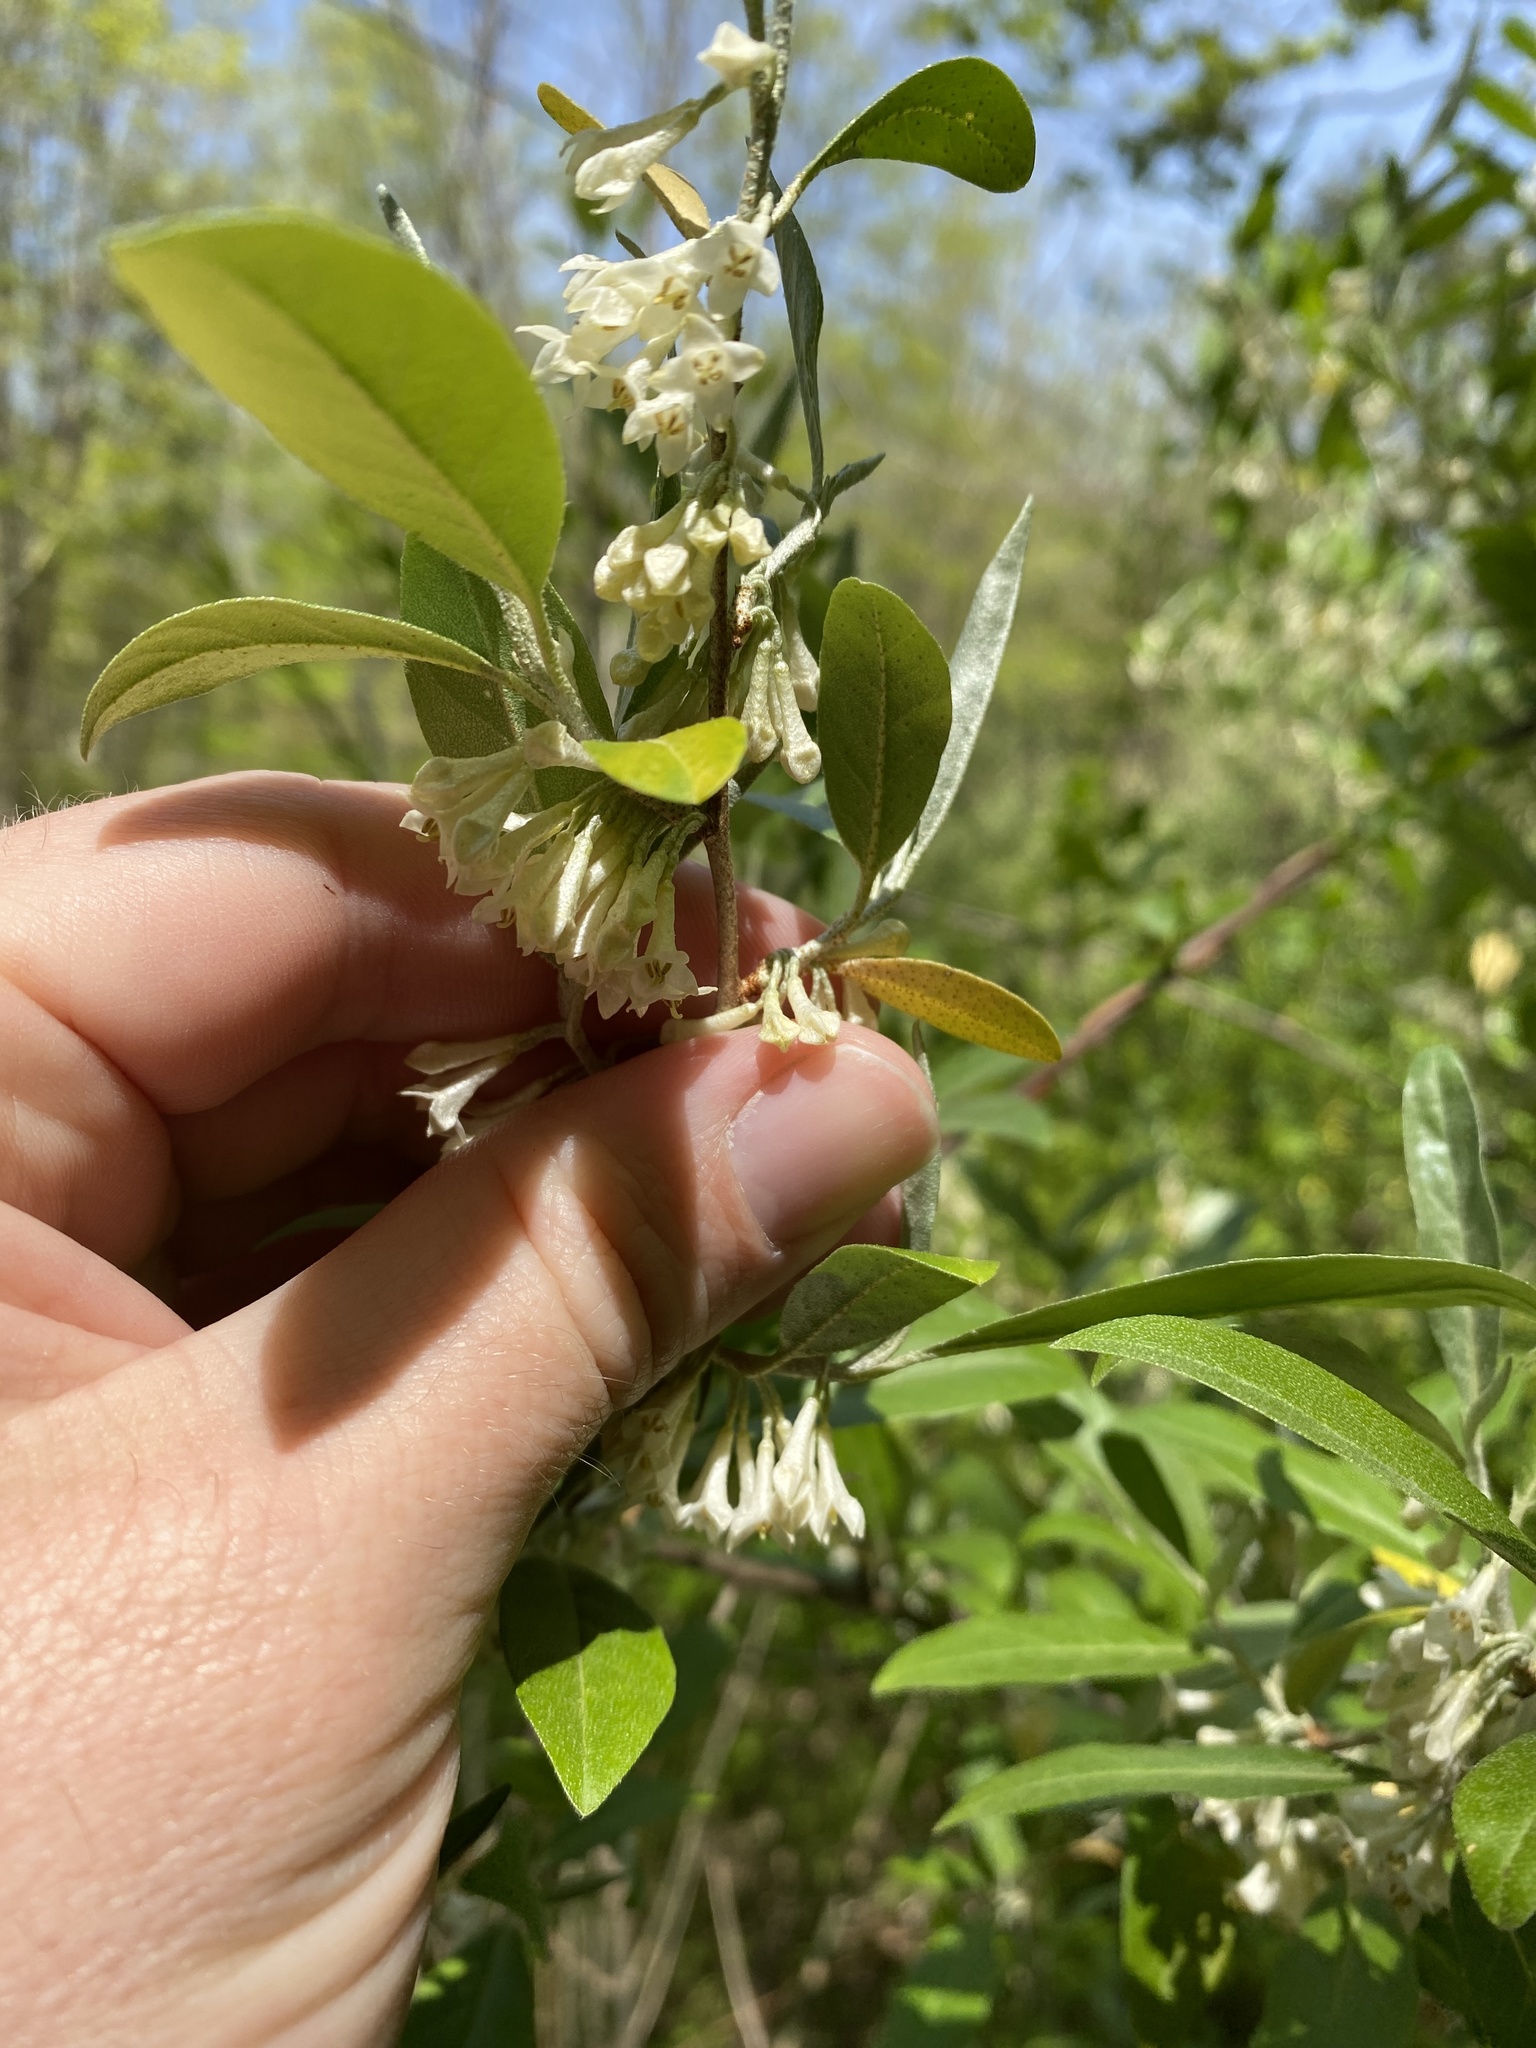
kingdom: Plantae
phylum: Tracheophyta
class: Magnoliopsida
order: Rosales
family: Elaeagnaceae
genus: Elaeagnus
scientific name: Elaeagnus umbellata
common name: Autumn olive
